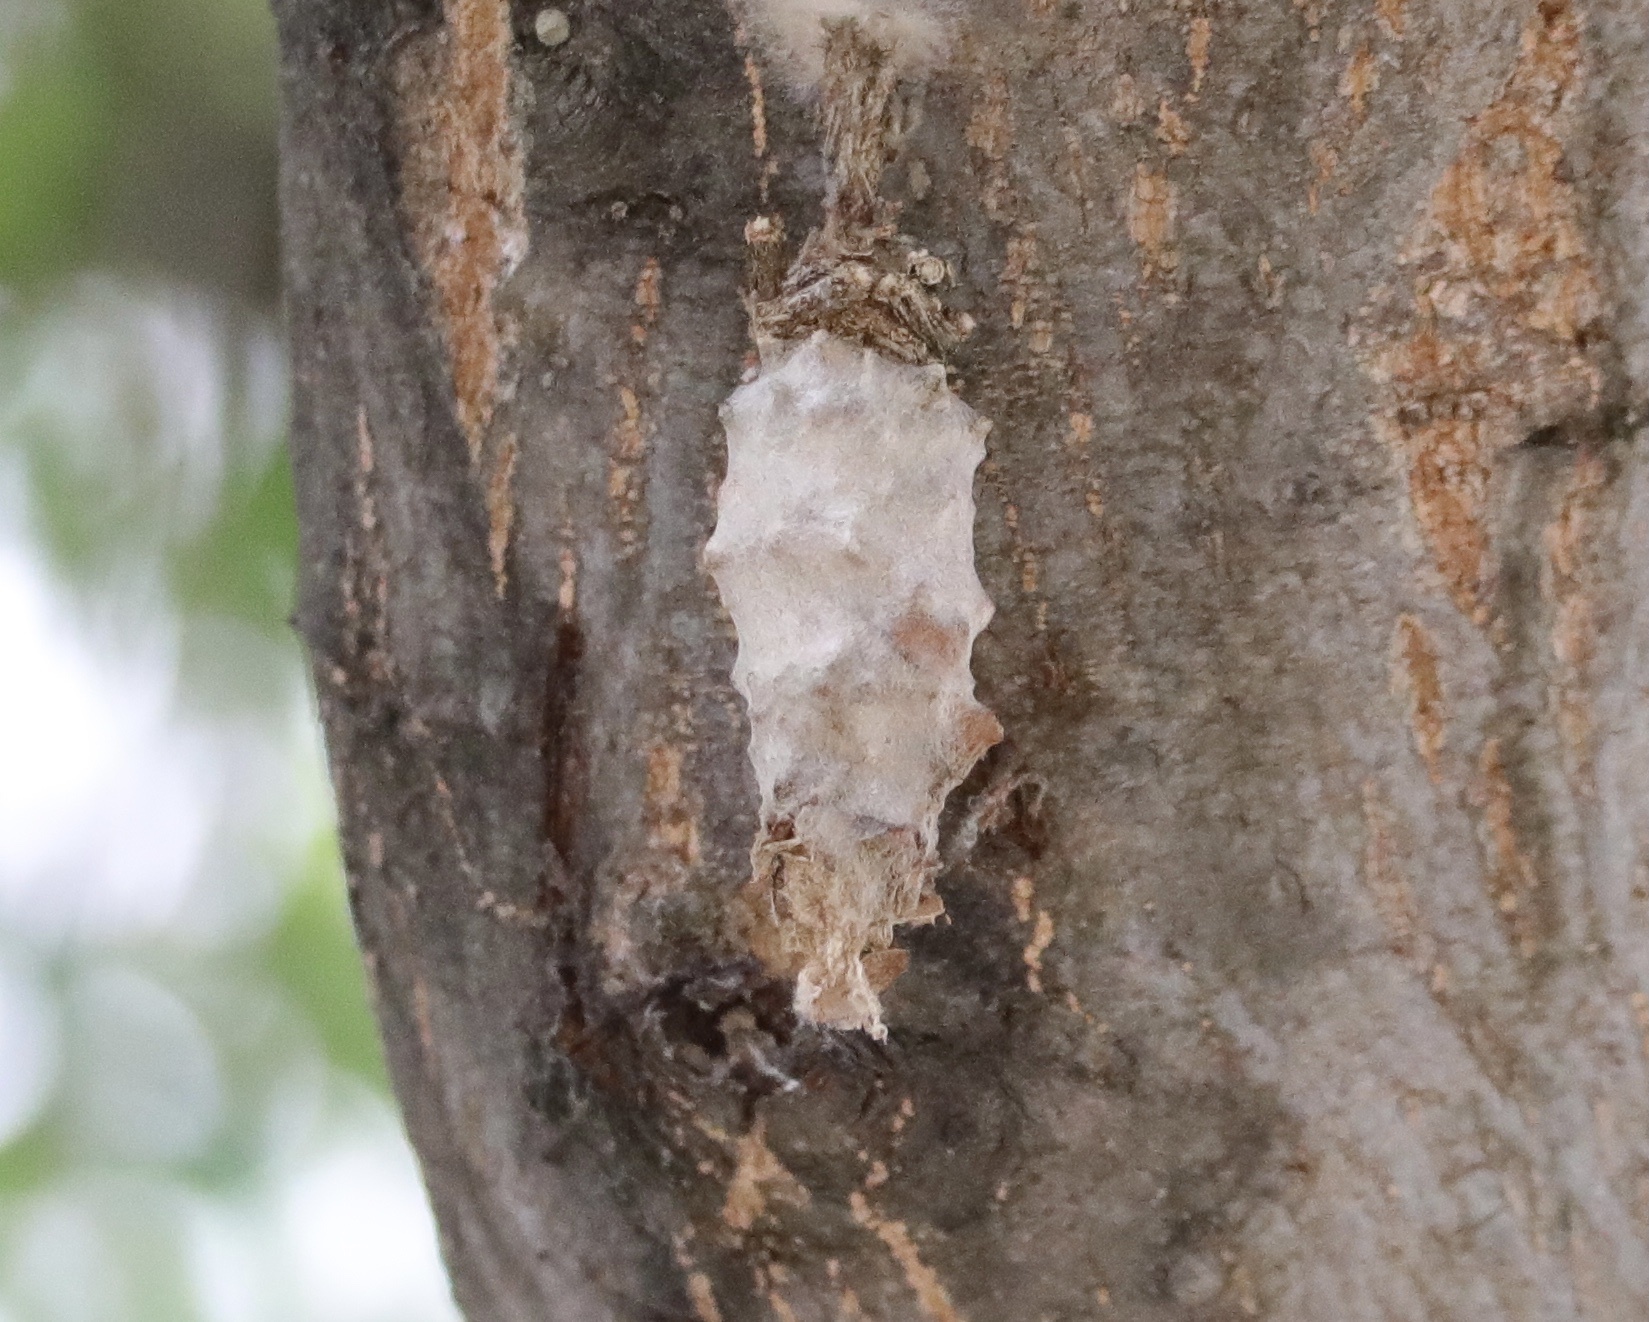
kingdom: Animalia
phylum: Arthropoda
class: Insecta
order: Lepidoptera
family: Psychidae
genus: Oiketicus
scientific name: Oiketicus kirbyi
